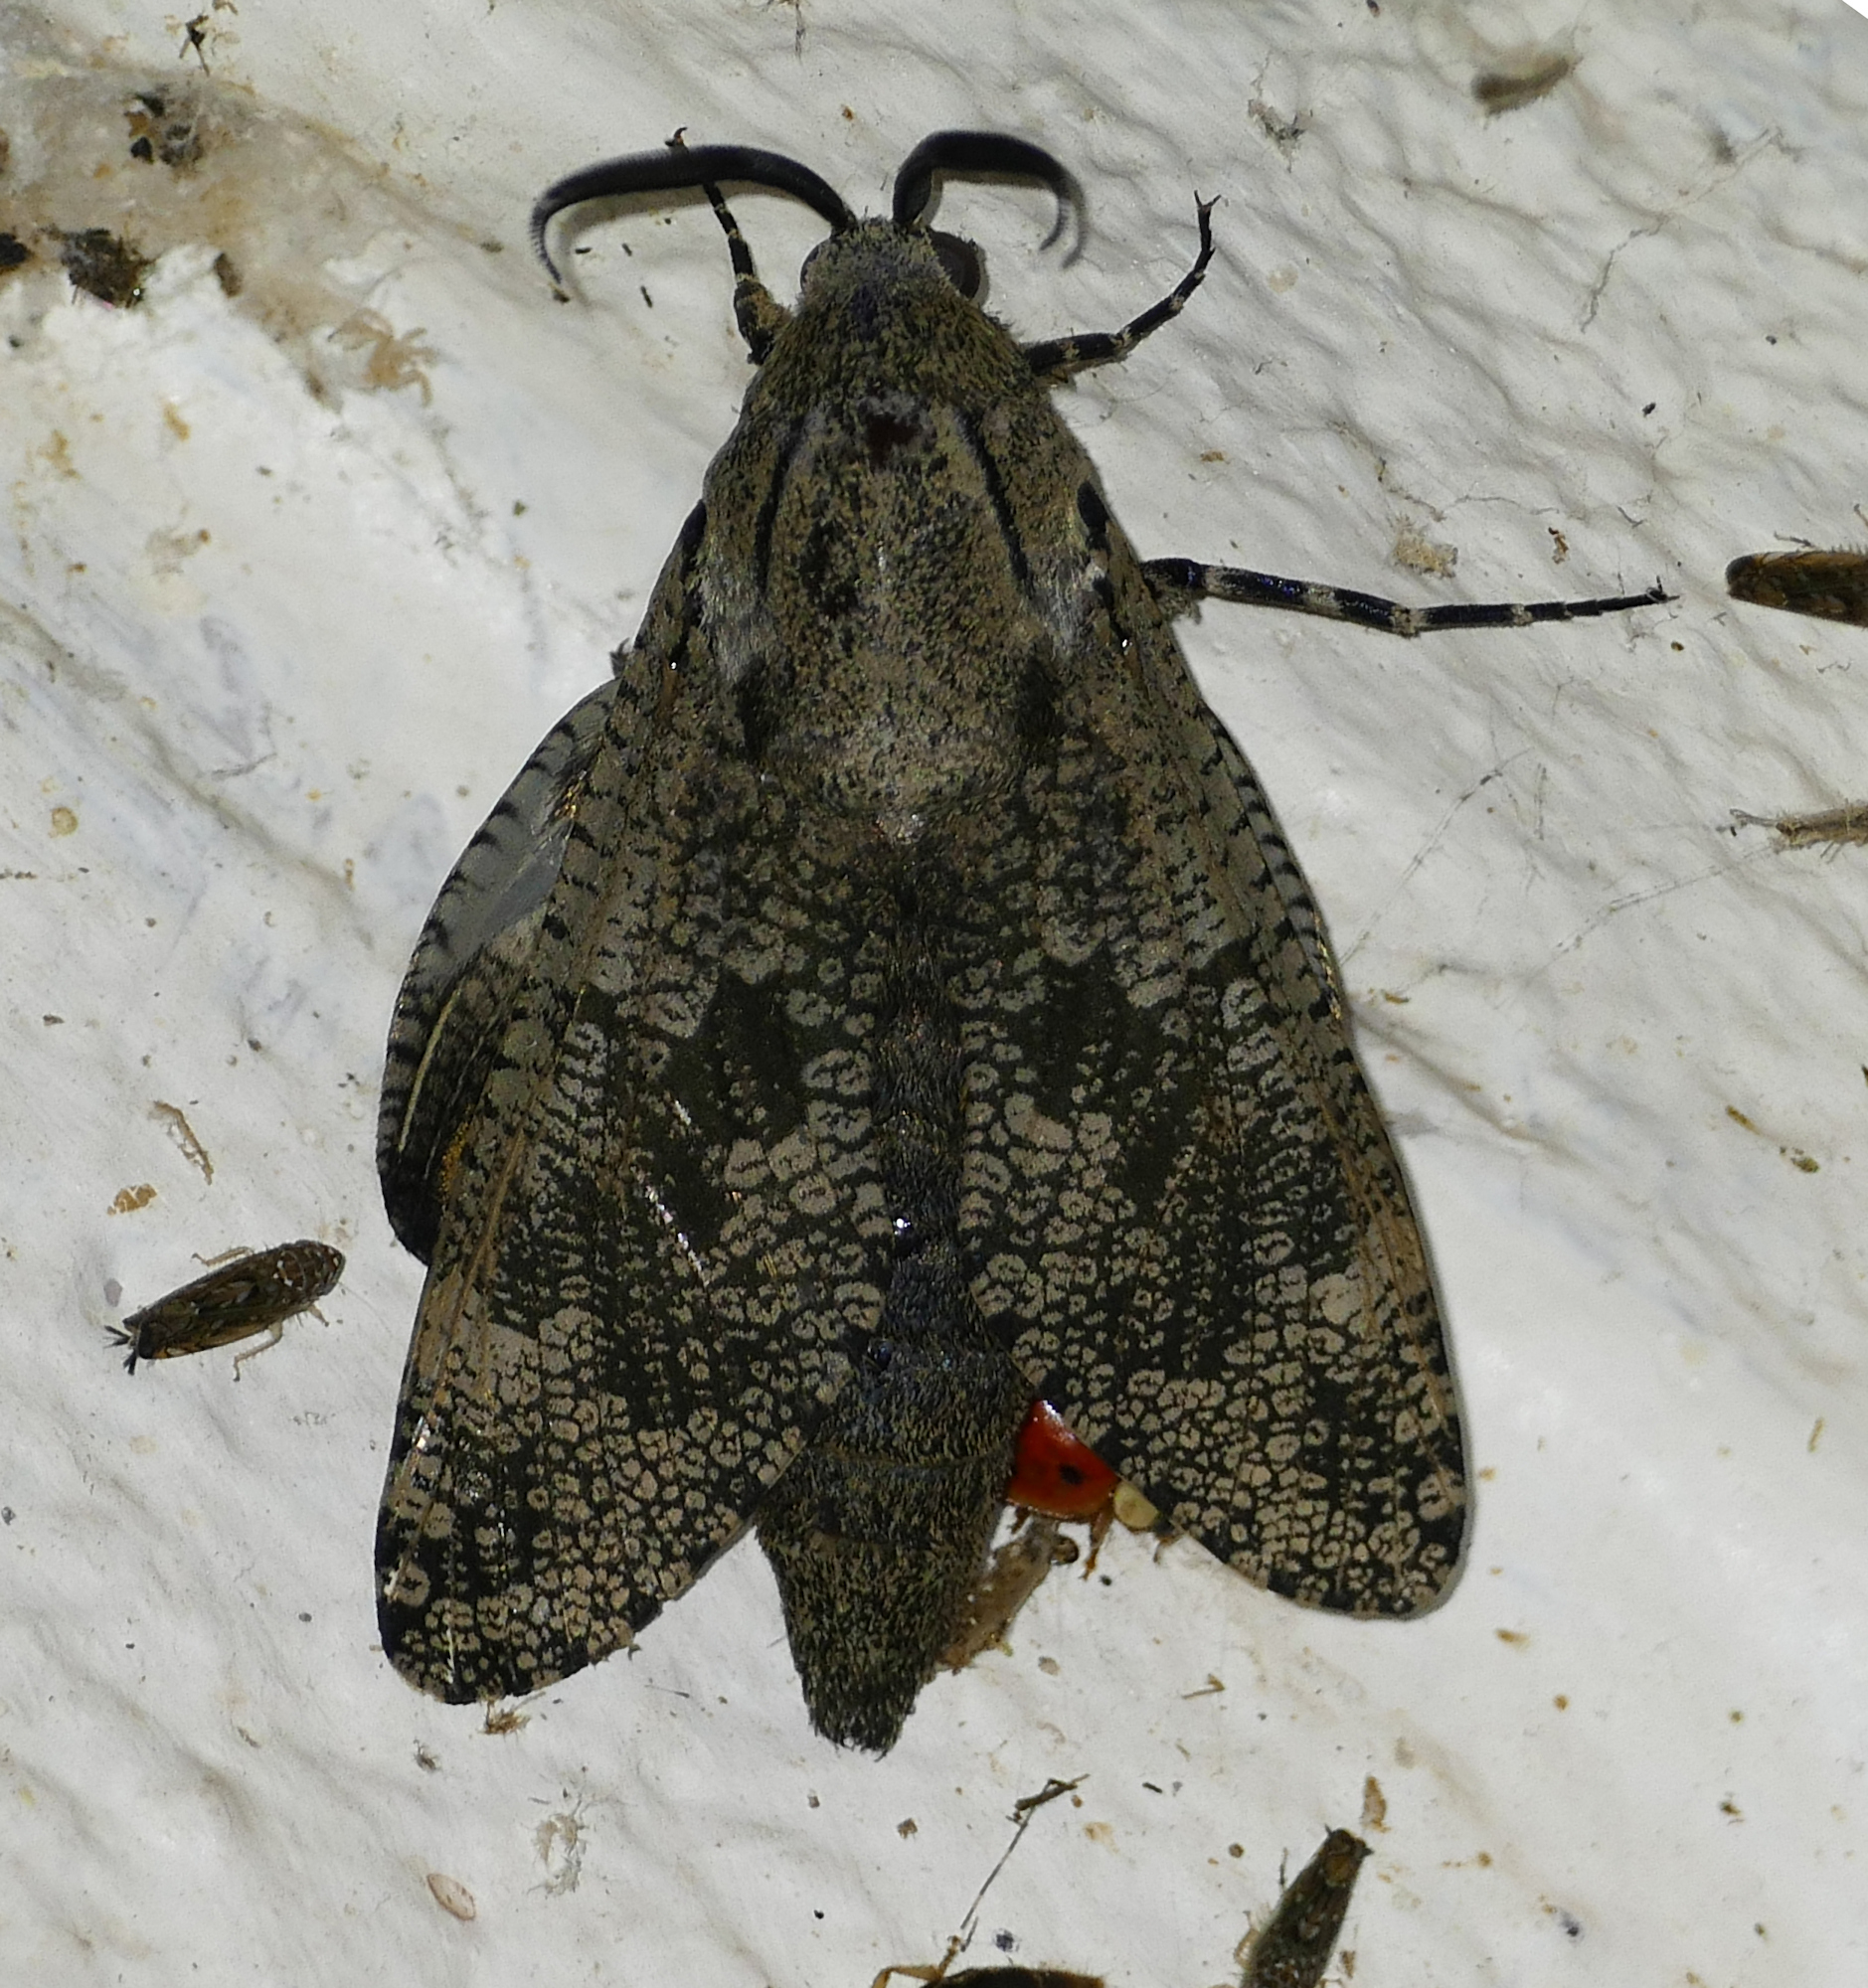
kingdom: Animalia
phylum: Arthropoda
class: Insecta
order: Lepidoptera
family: Cossidae
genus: Prionoxystus
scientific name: Prionoxystus robiniae
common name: Carpenterworm
